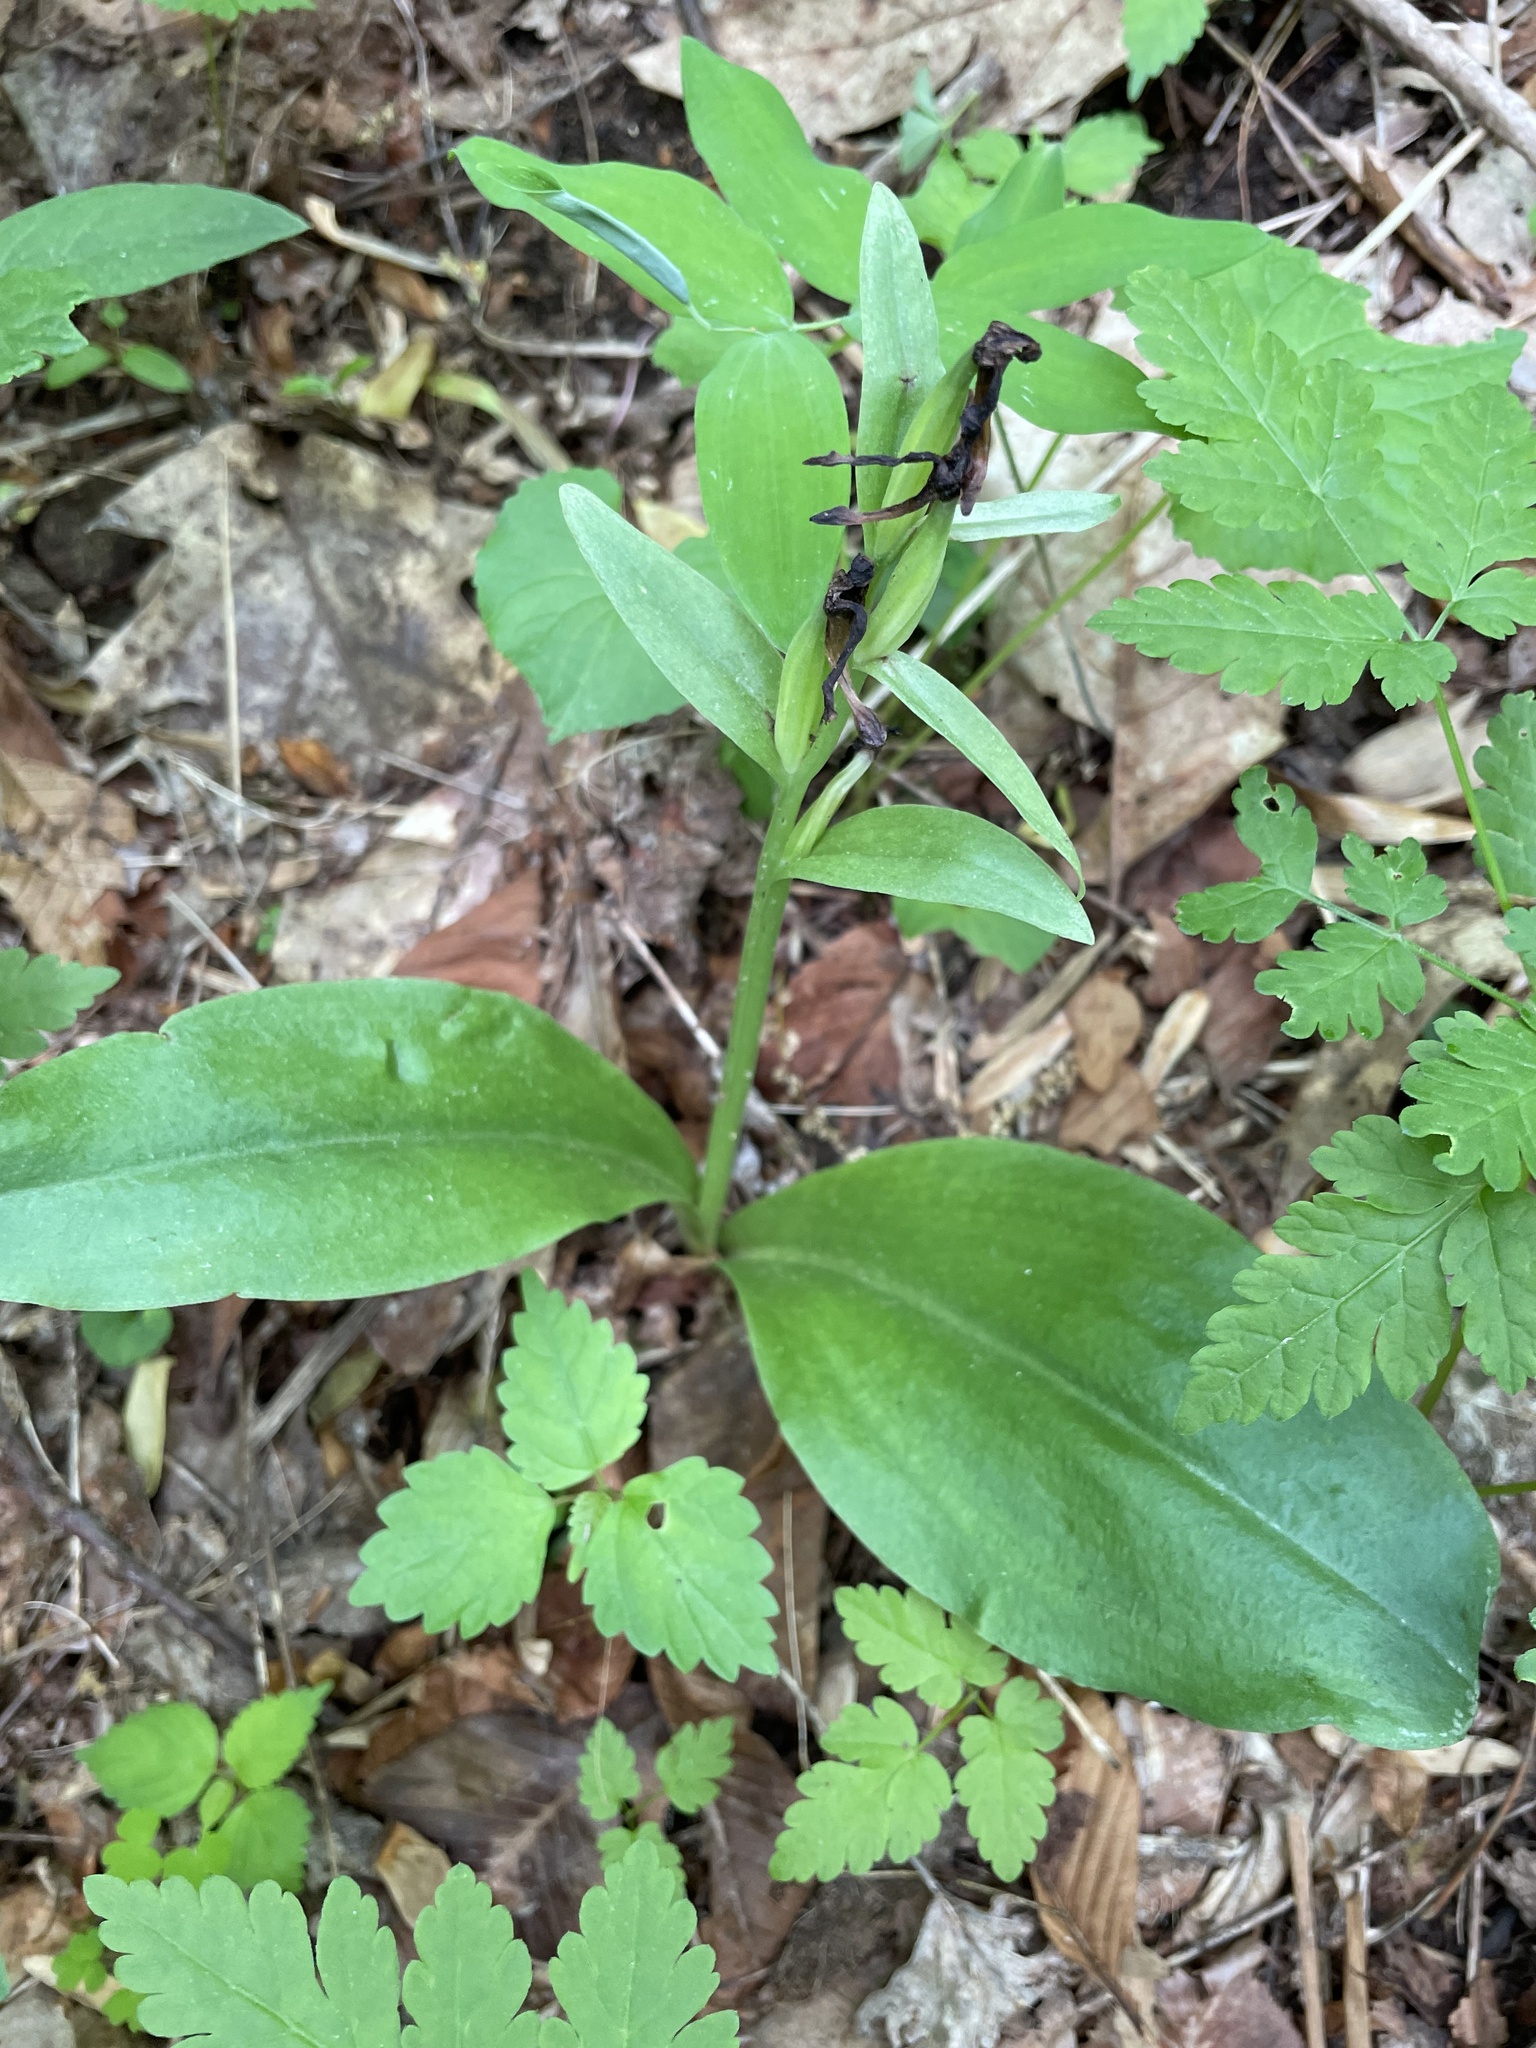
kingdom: Plantae
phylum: Tracheophyta
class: Liliopsida
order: Asparagales
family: Orchidaceae
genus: Galearis
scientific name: Galearis spectabilis
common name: Purple-hooded orchis
